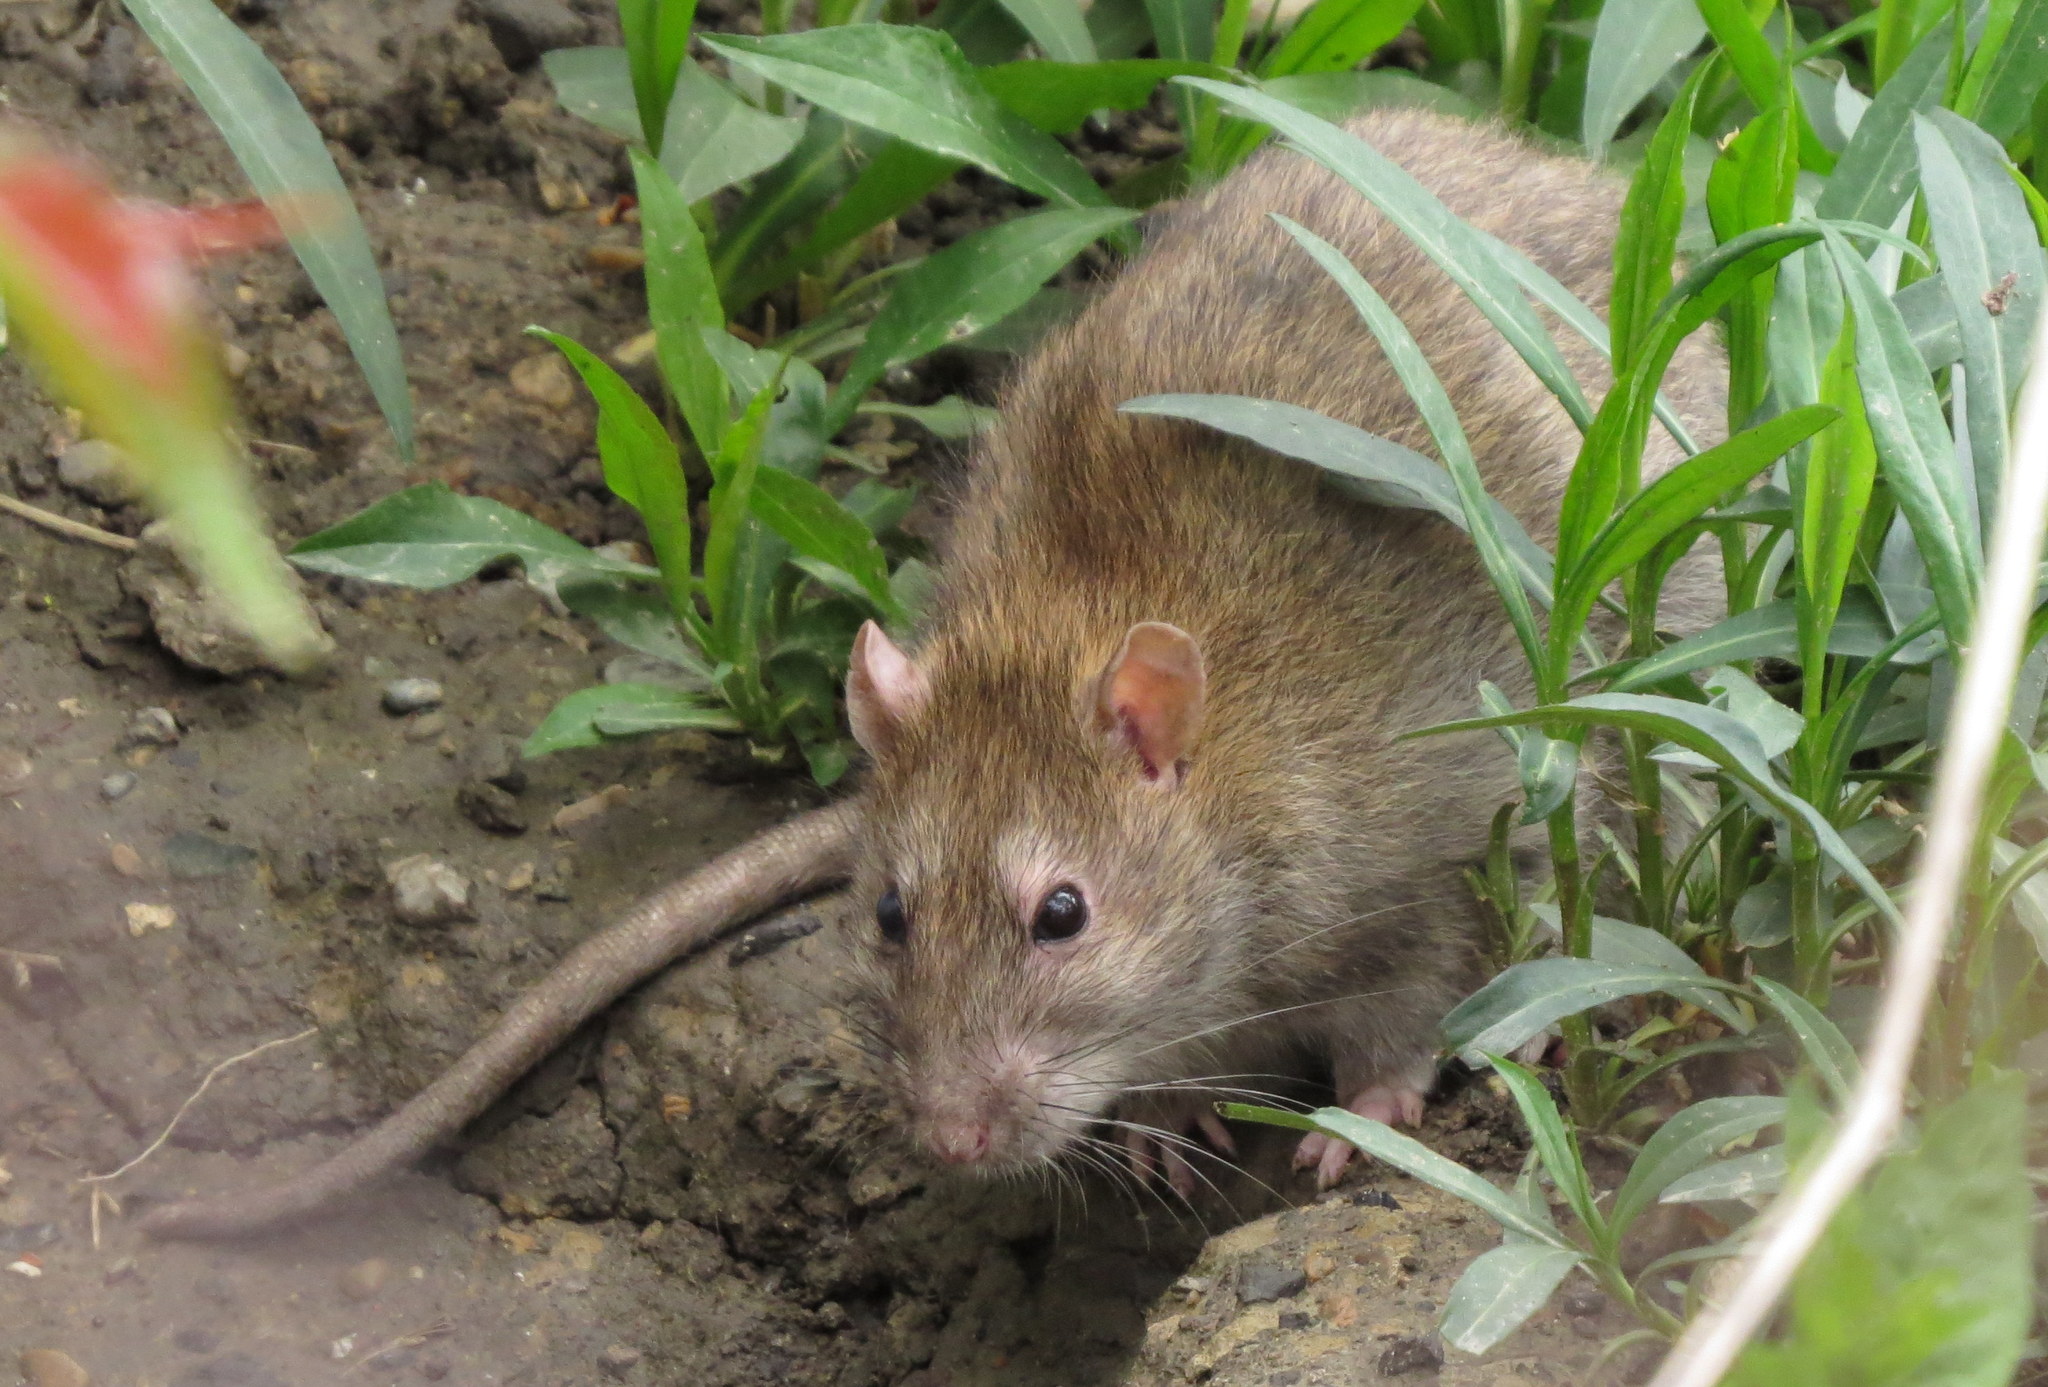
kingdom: Animalia
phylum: Chordata
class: Mammalia
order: Rodentia
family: Muridae
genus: Rattus
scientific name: Rattus norvegicus
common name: Brown rat
